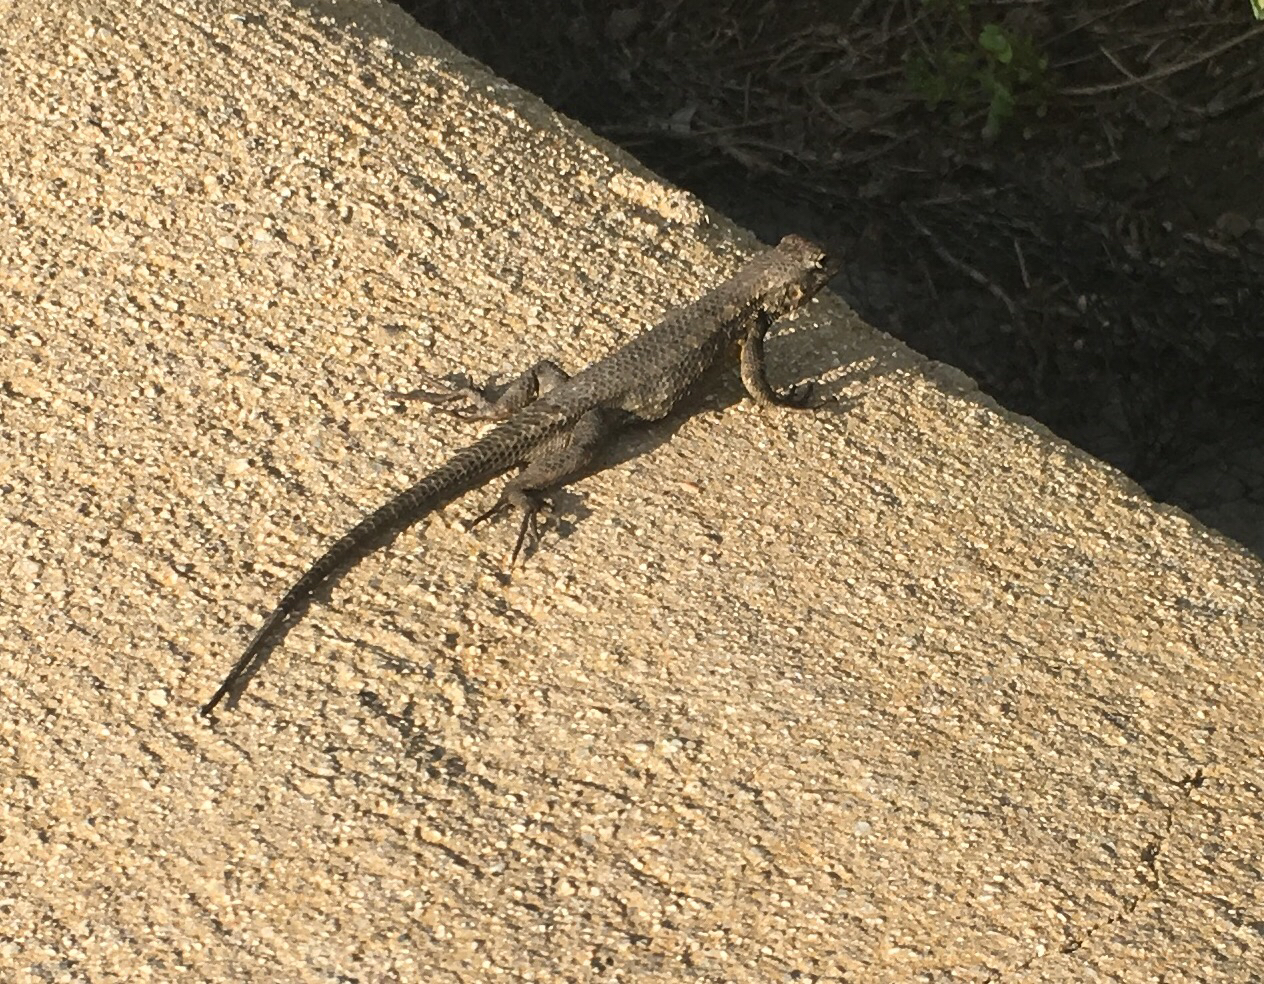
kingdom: Animalia
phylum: Chordata
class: Squamata
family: Phrynosomatidae
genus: Sceloporus
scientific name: Sceloporus occidentalis
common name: Western fence lizard
